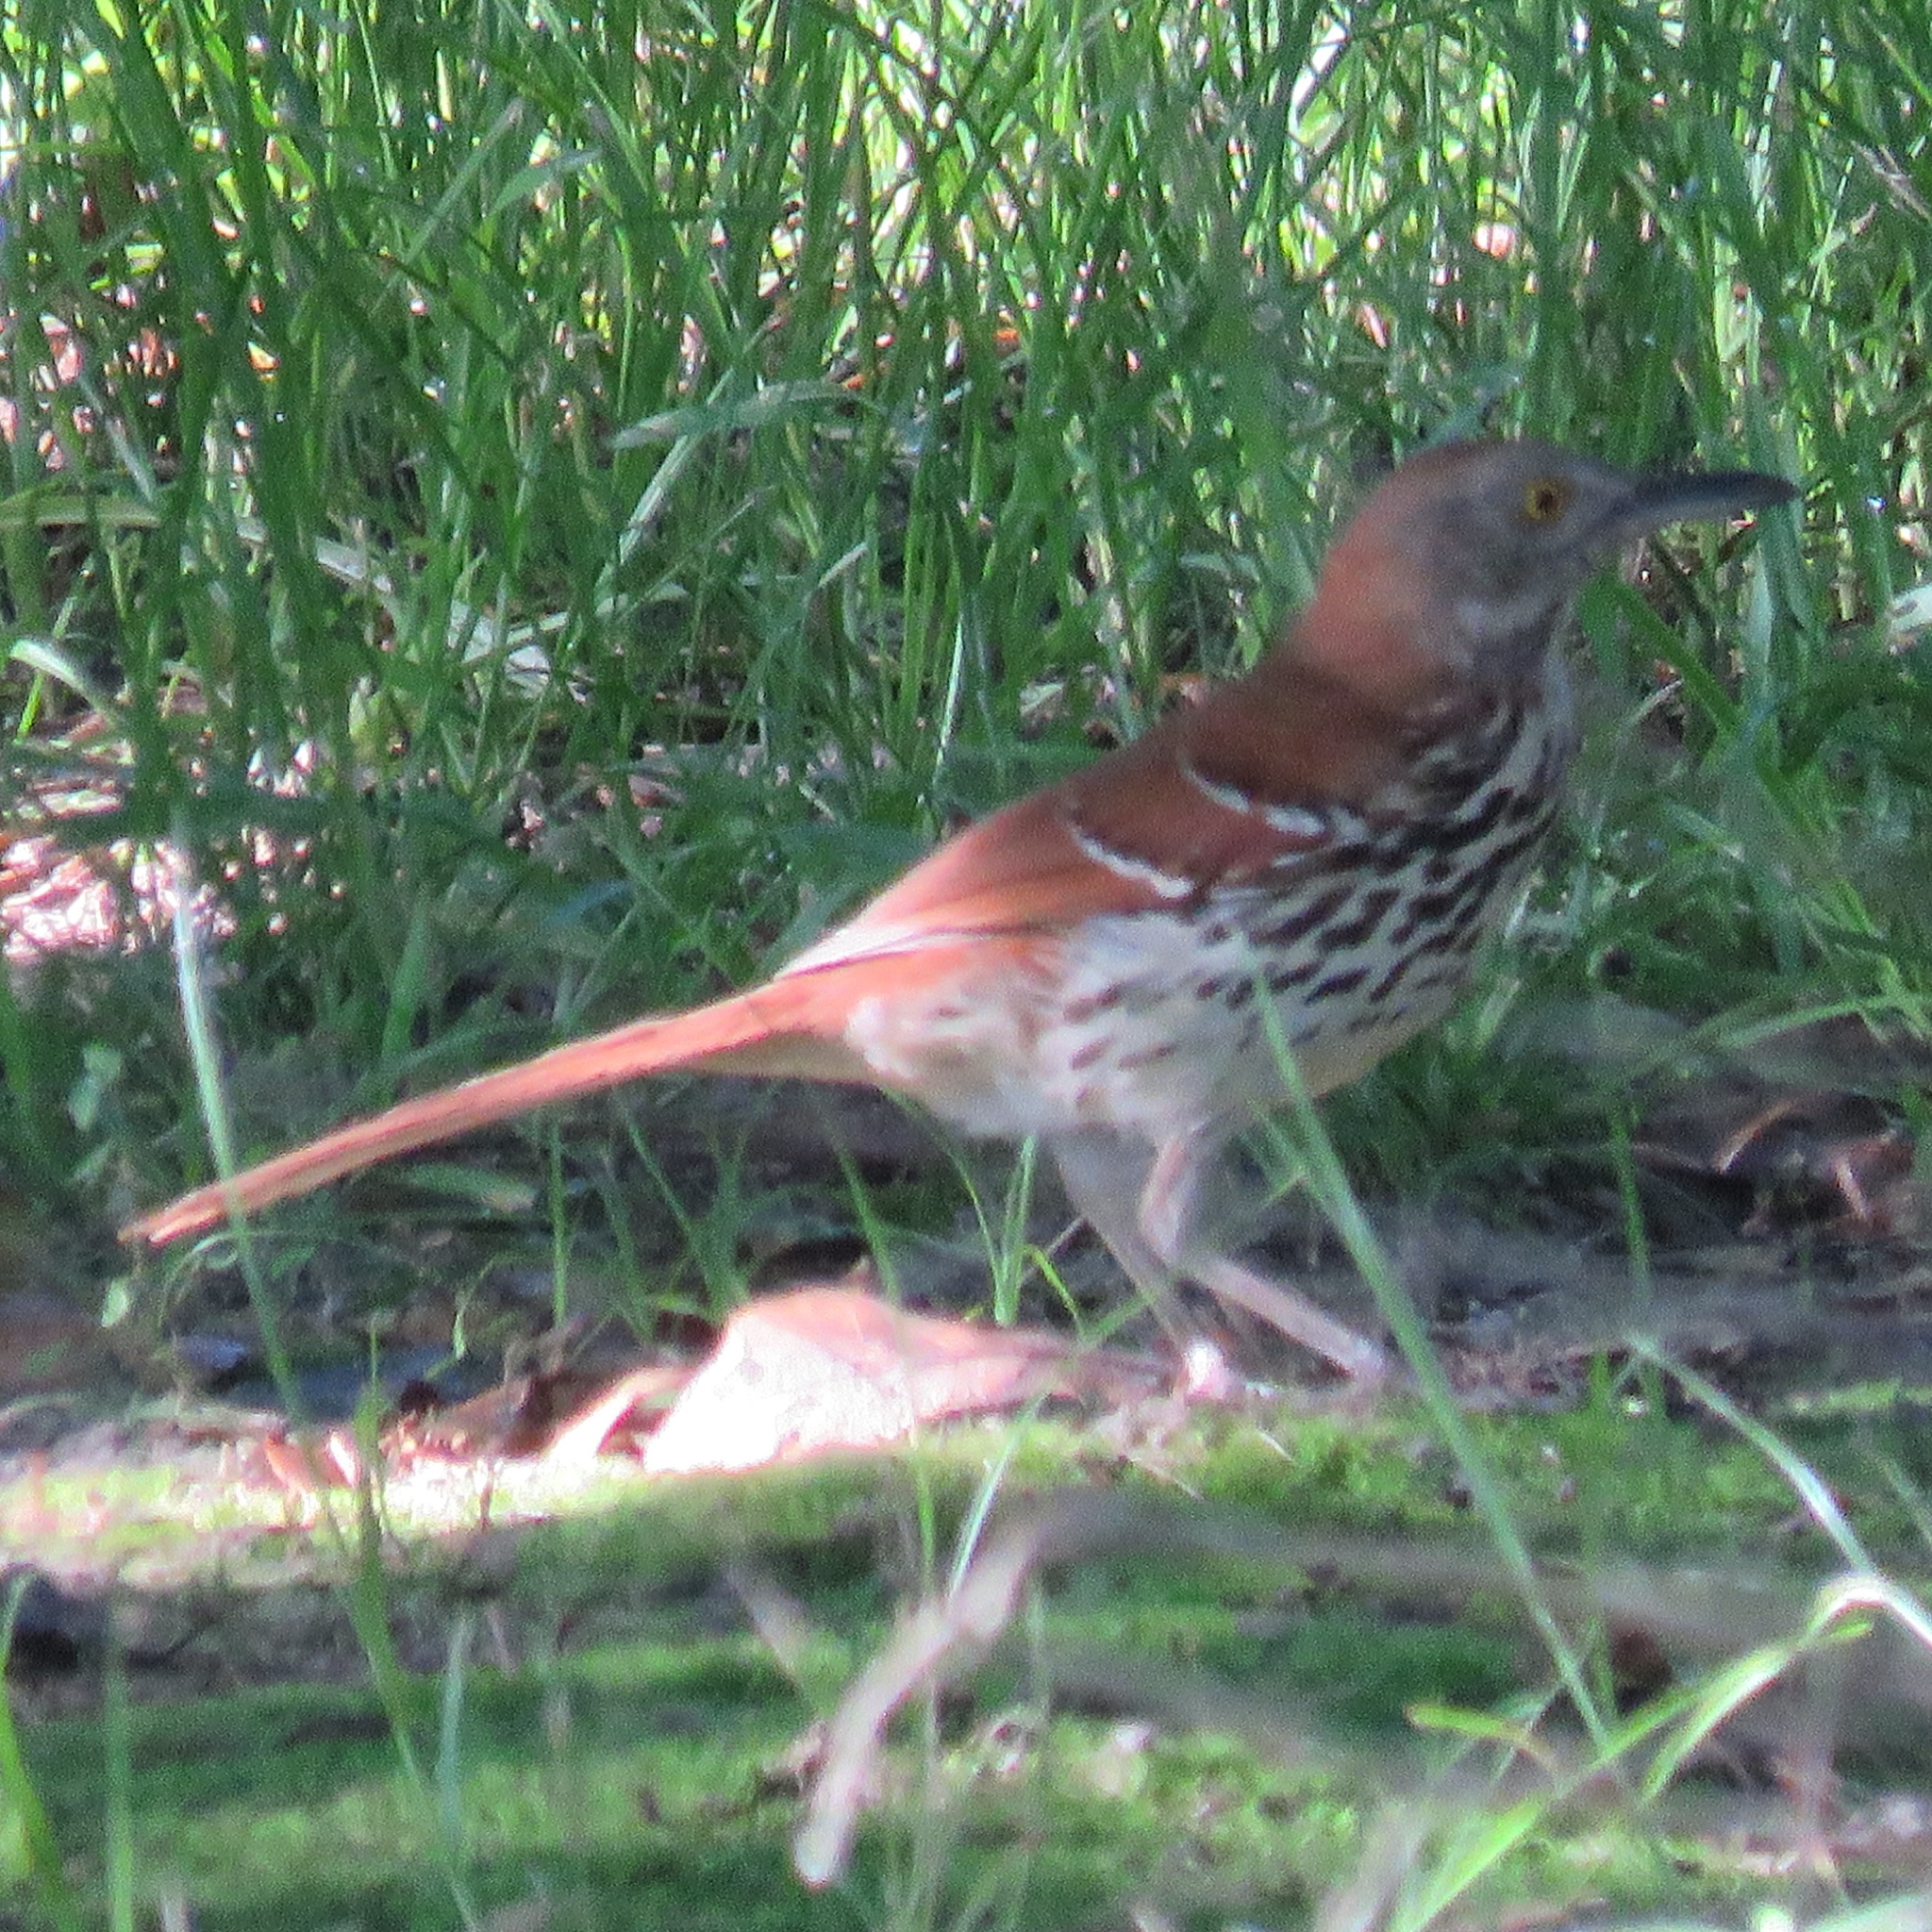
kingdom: Animalia
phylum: Chordata
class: Aves
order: Passeriformes
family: Mimidae
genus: Toxostoma
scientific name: Toxostoma rufum
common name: Brown thrasher
